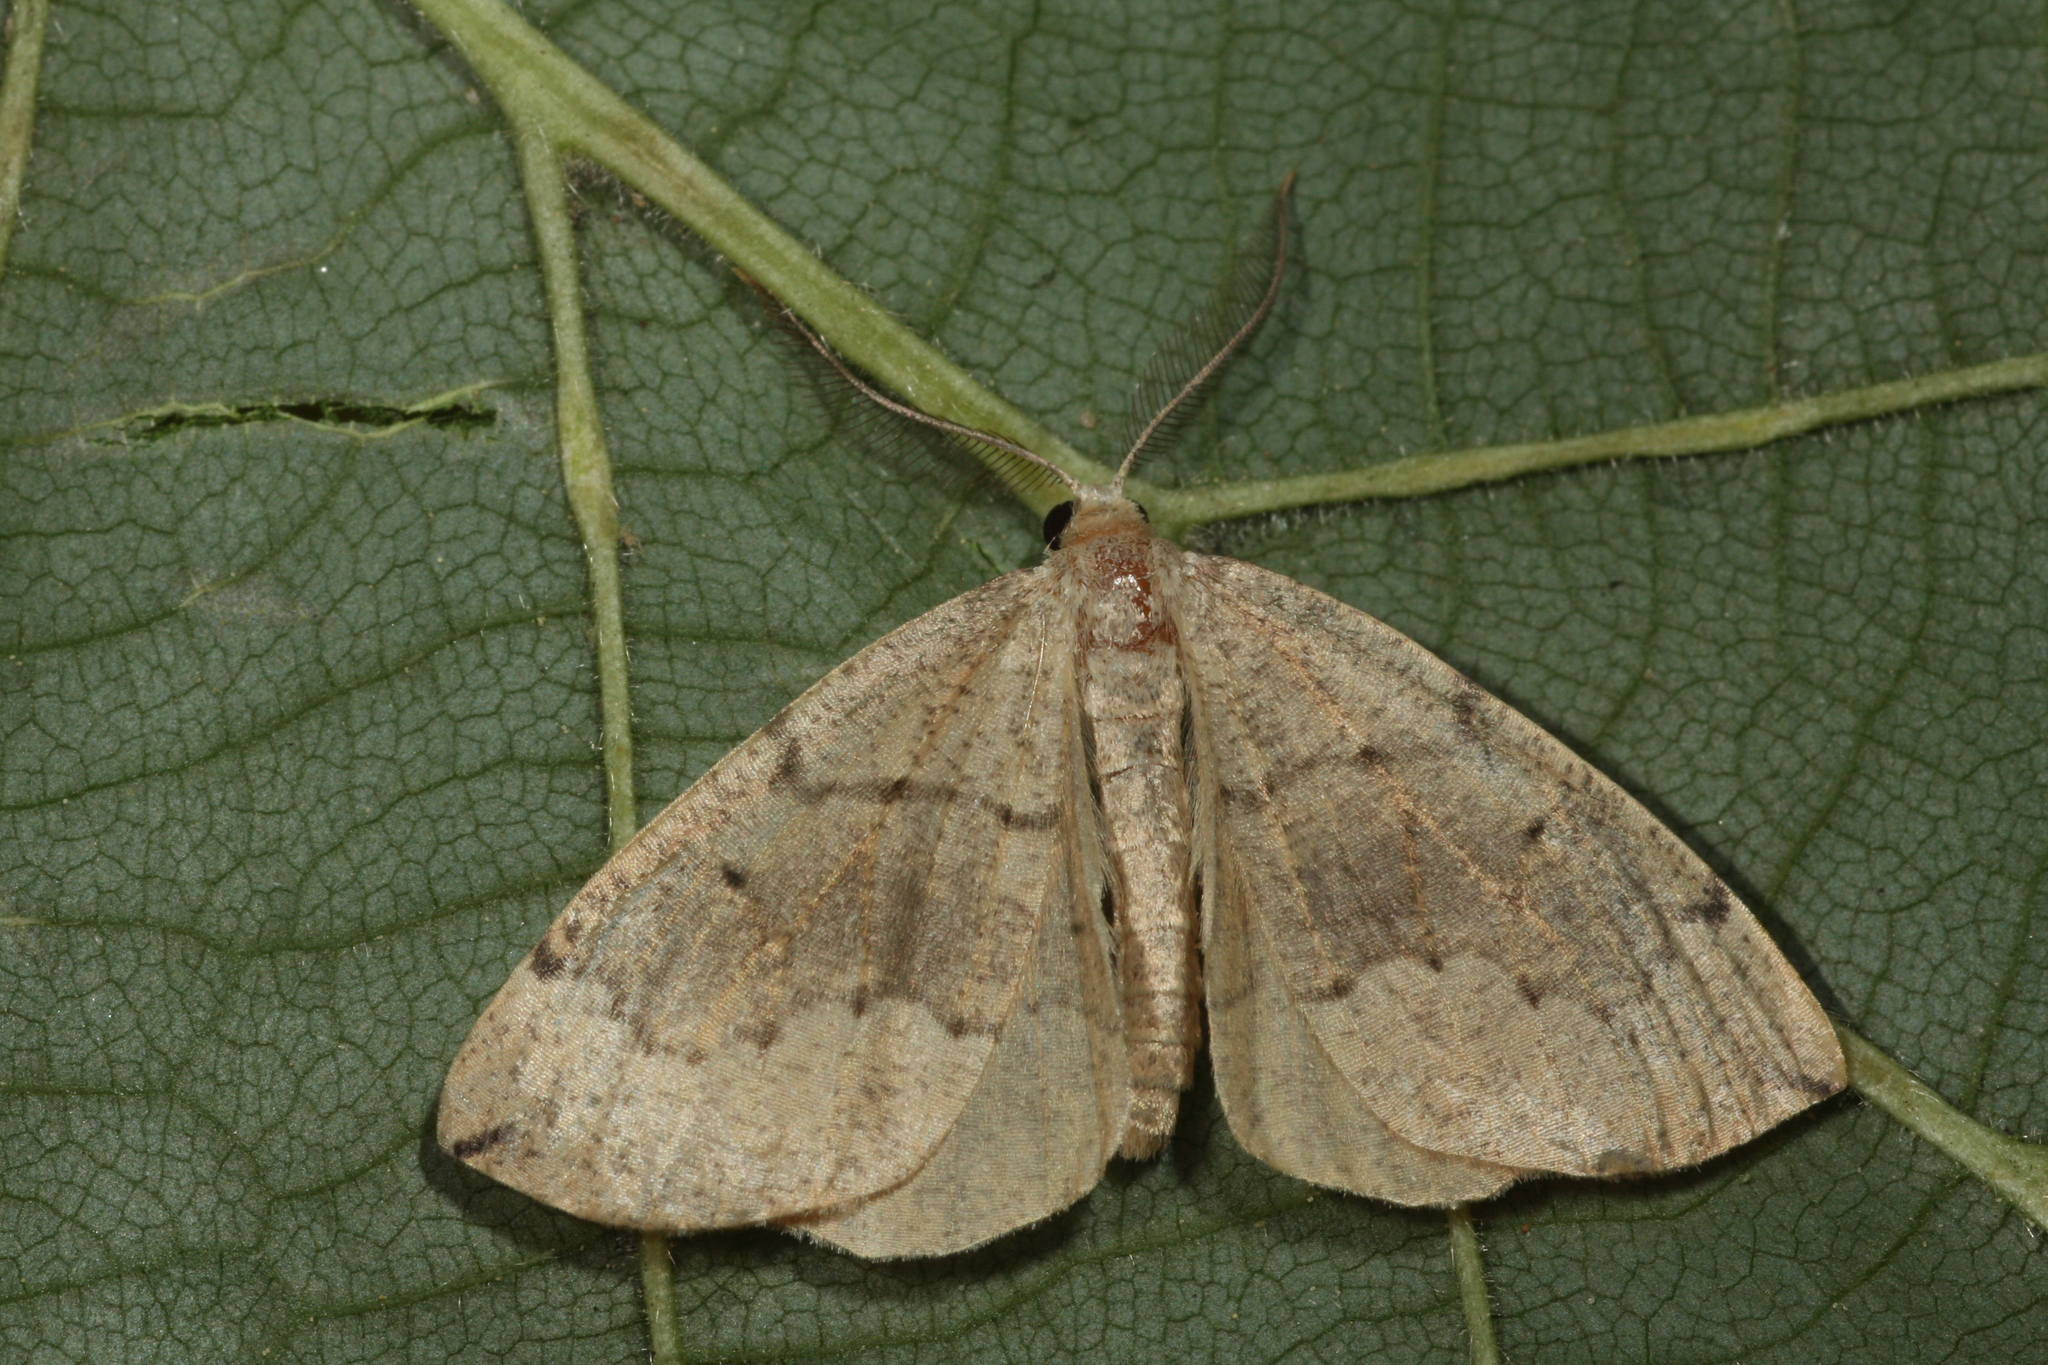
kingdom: Animalia
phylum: Arthropoda
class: Insecta
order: Lepidoptera
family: Geometridae
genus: Pungeleria
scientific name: Pungeleria capreolaria
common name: Banded pine carpet
